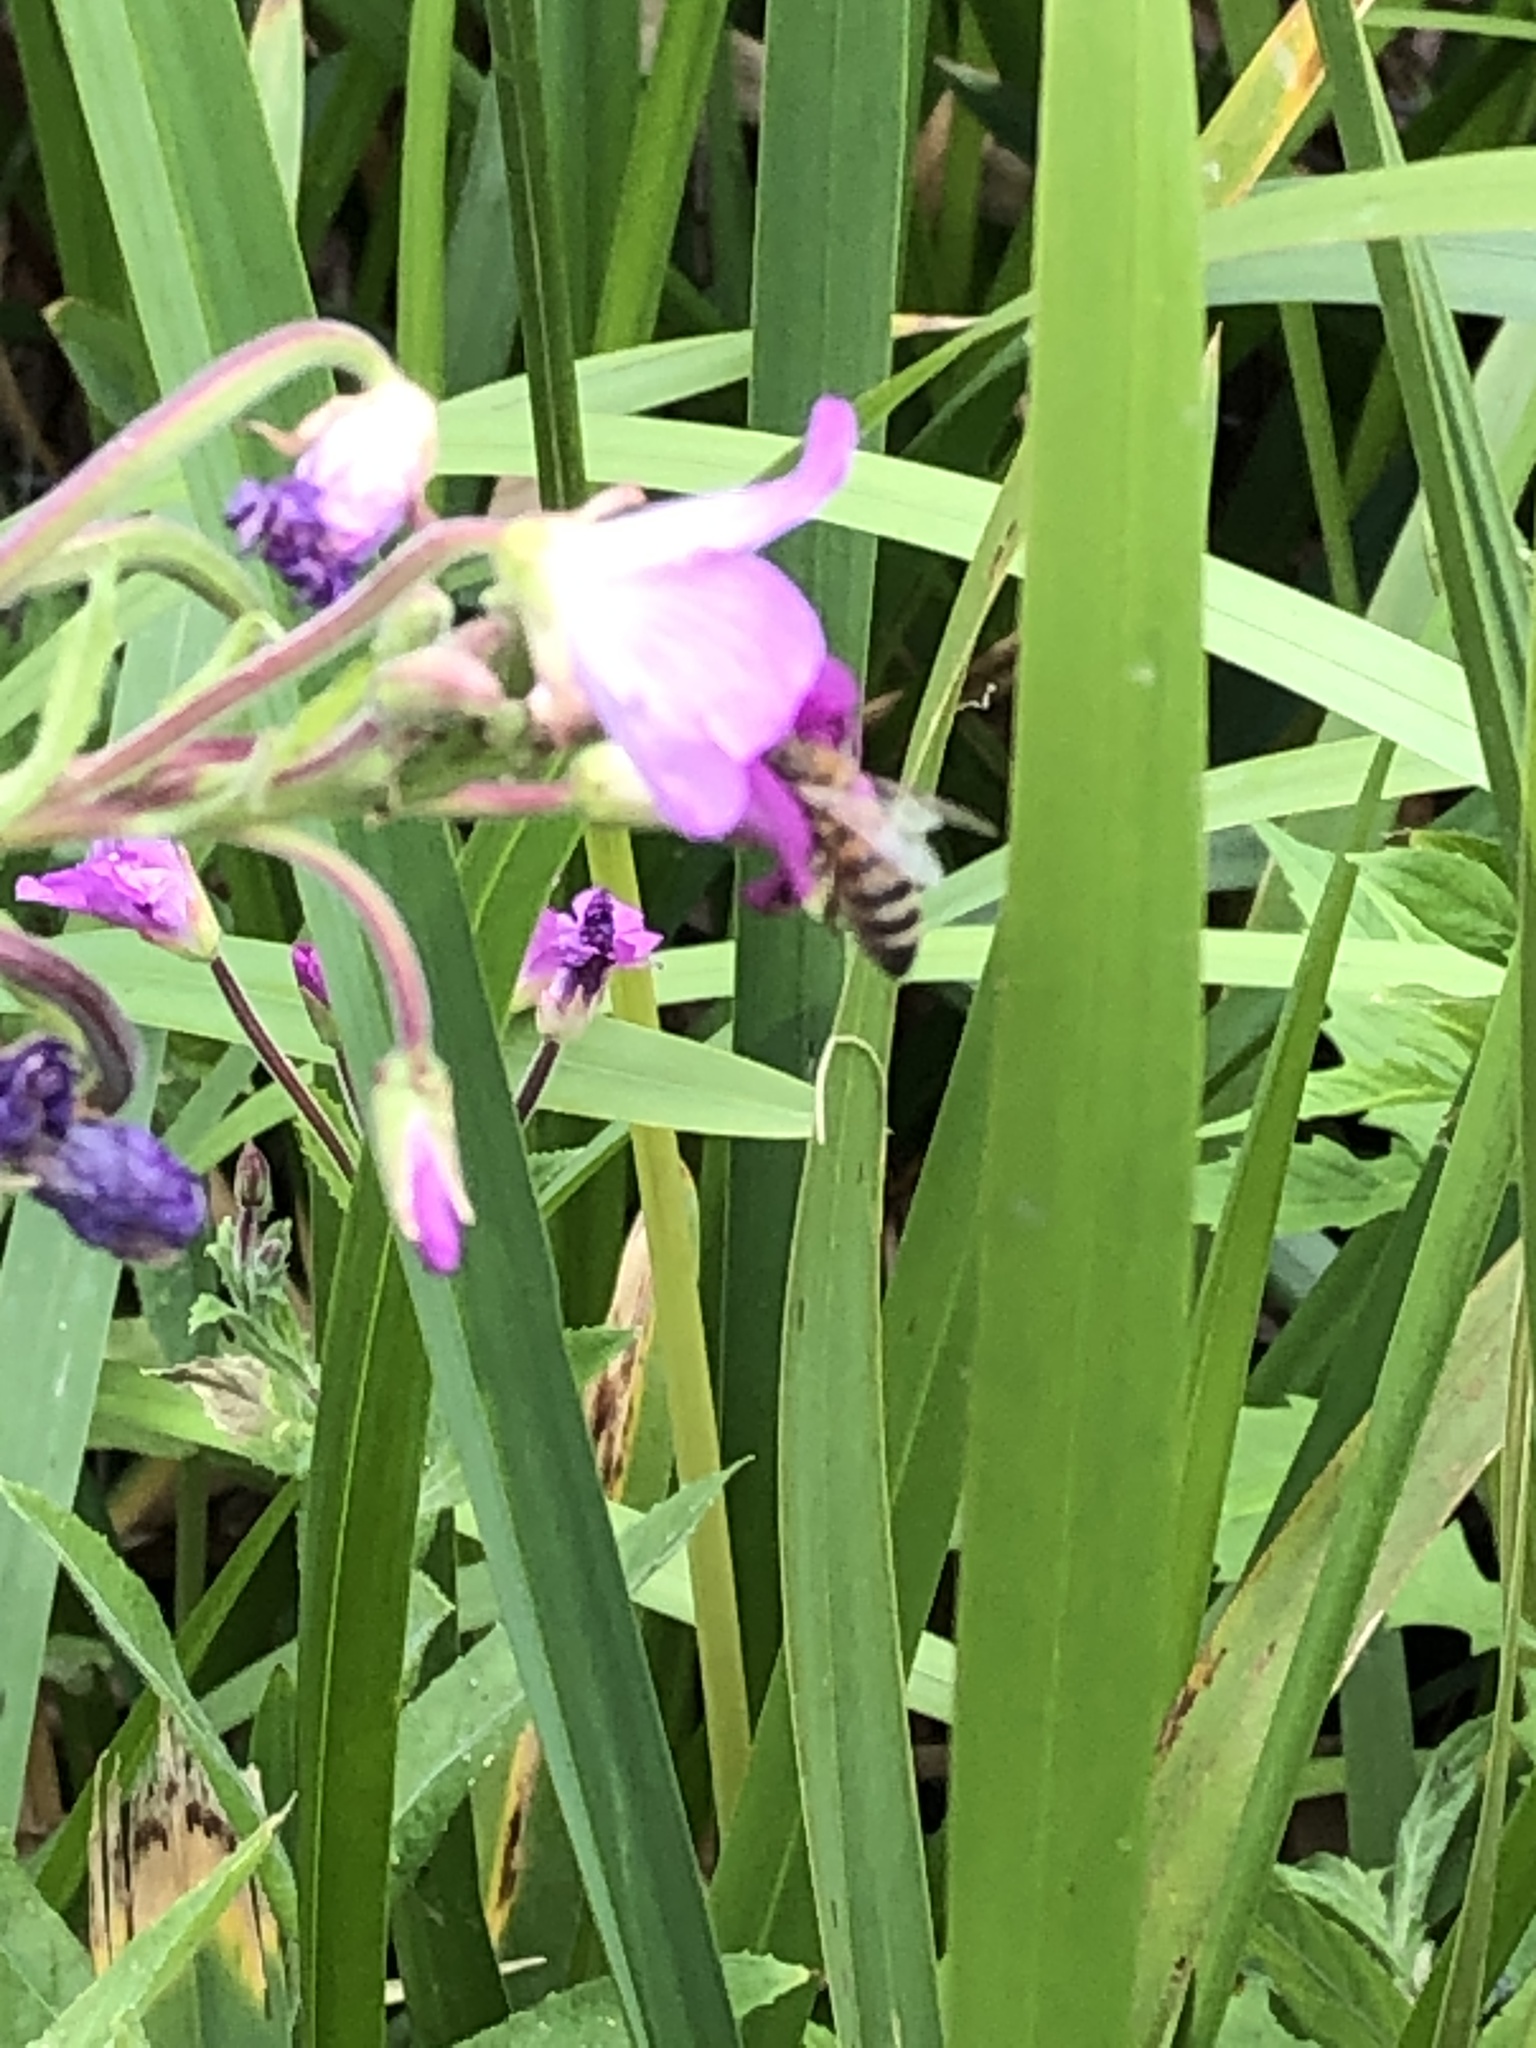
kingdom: Animalia
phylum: Arthropoda
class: Insecta
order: Hymenoptera
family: Apidae
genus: Apis
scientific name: Apis mellifera
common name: Honey bee
